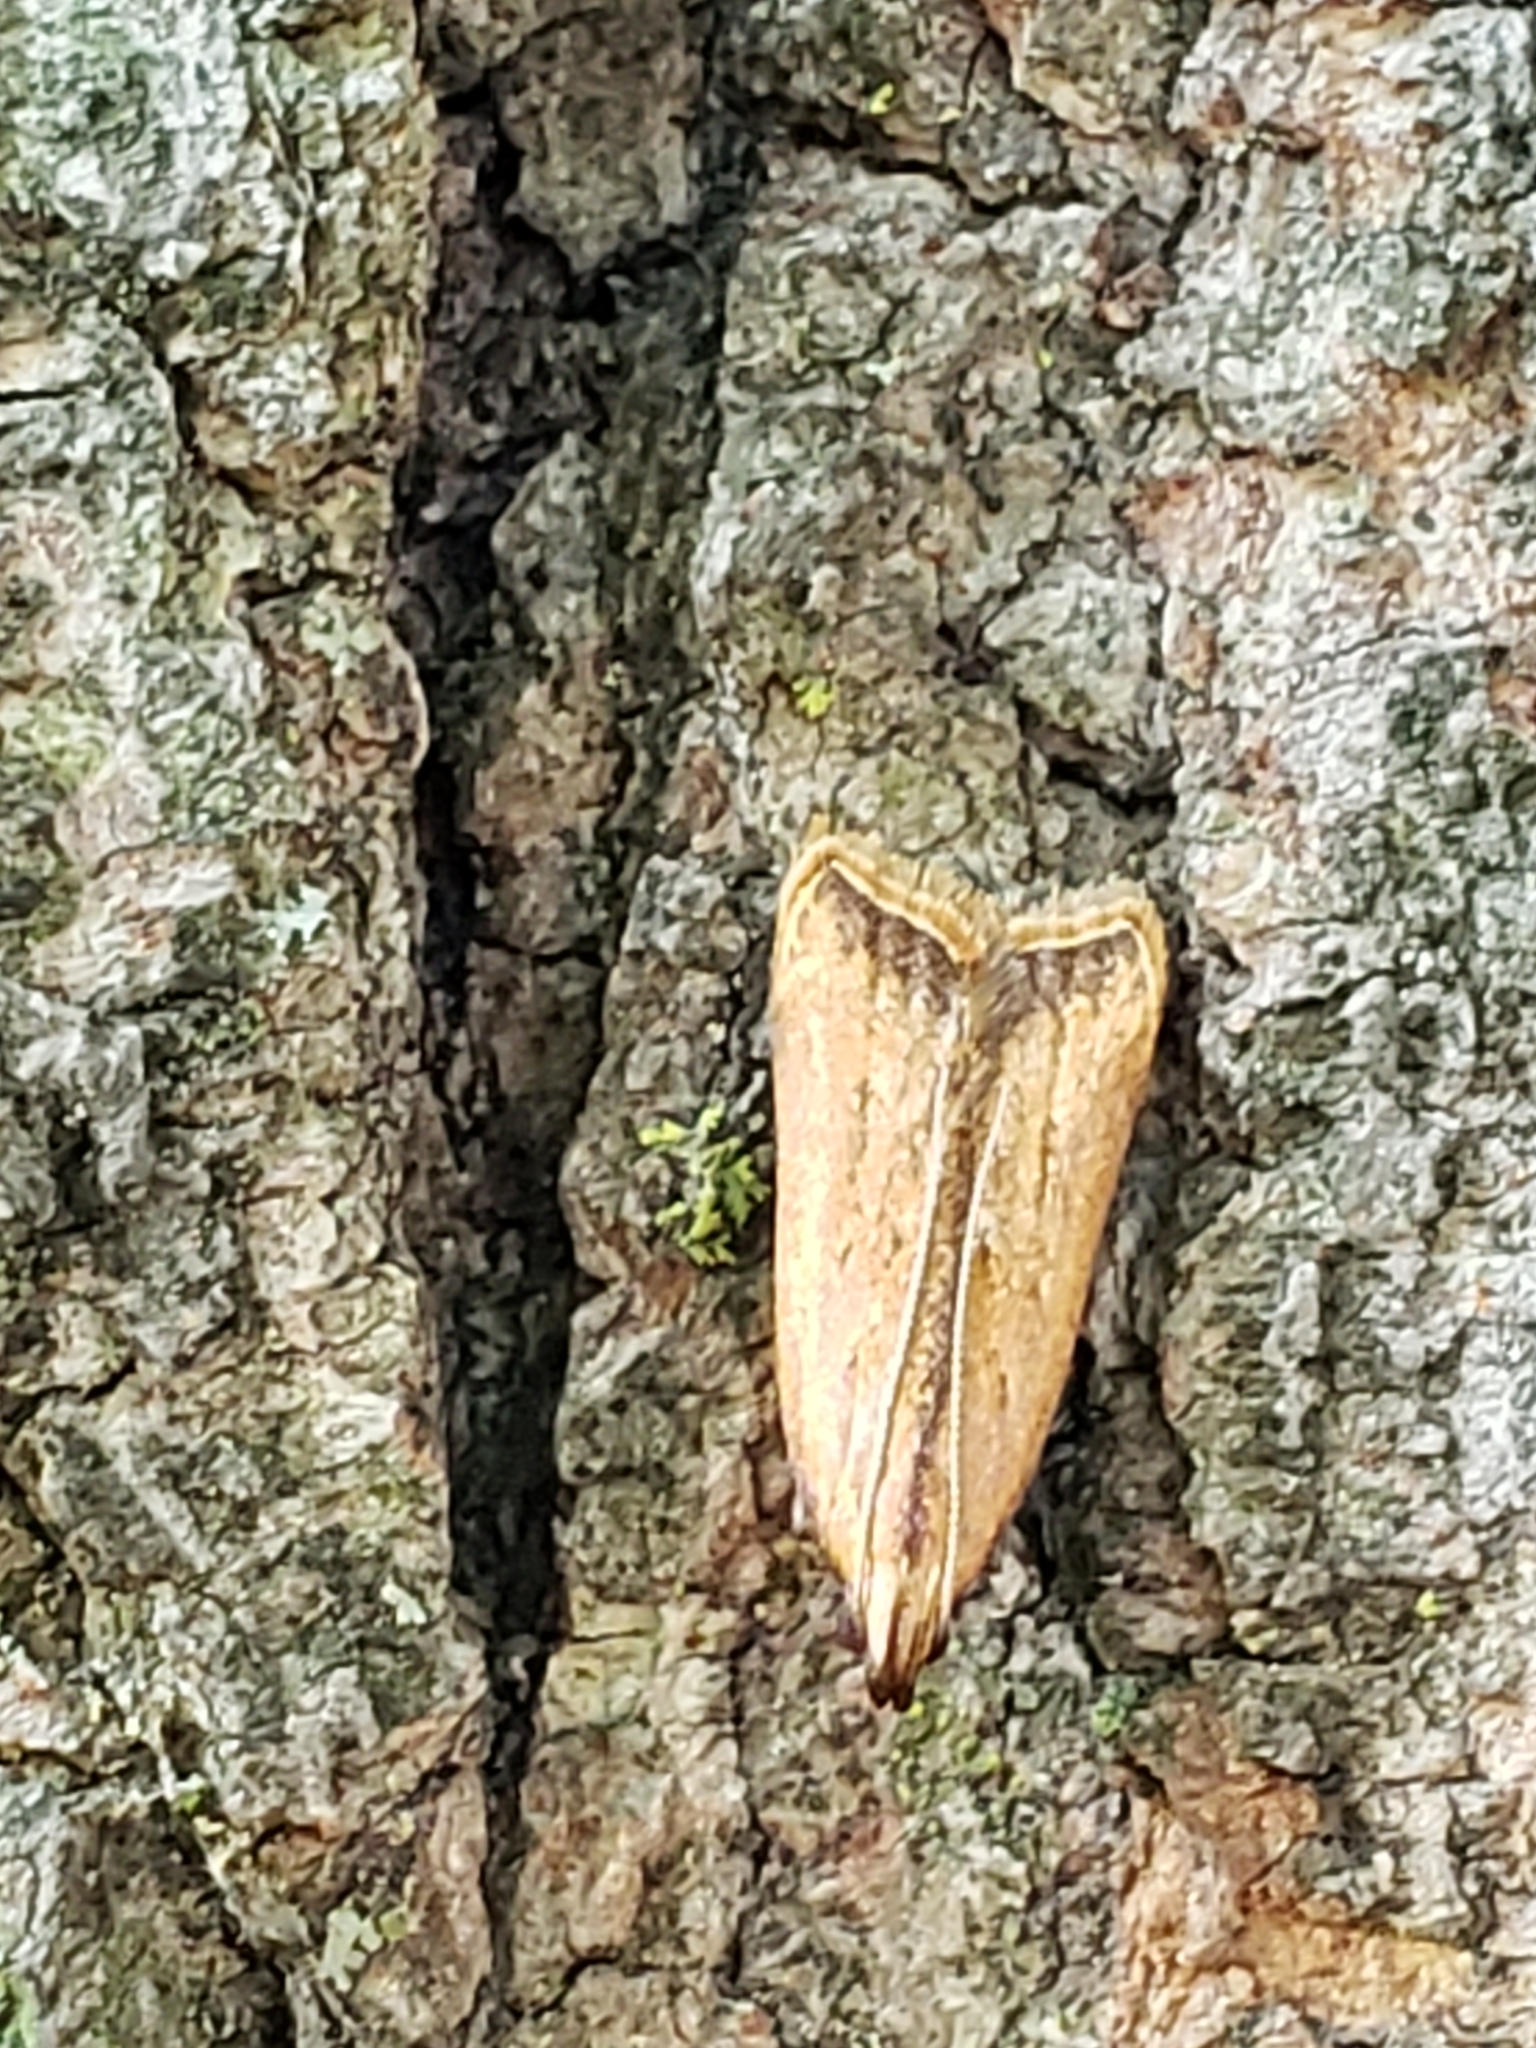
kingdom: Animalia
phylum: Arthropoda
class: Insecta
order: Lepidoptera
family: Gelechiidae
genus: Dichomeris
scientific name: Dichomeris heriguronis
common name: Black-edged dichomeris moth
